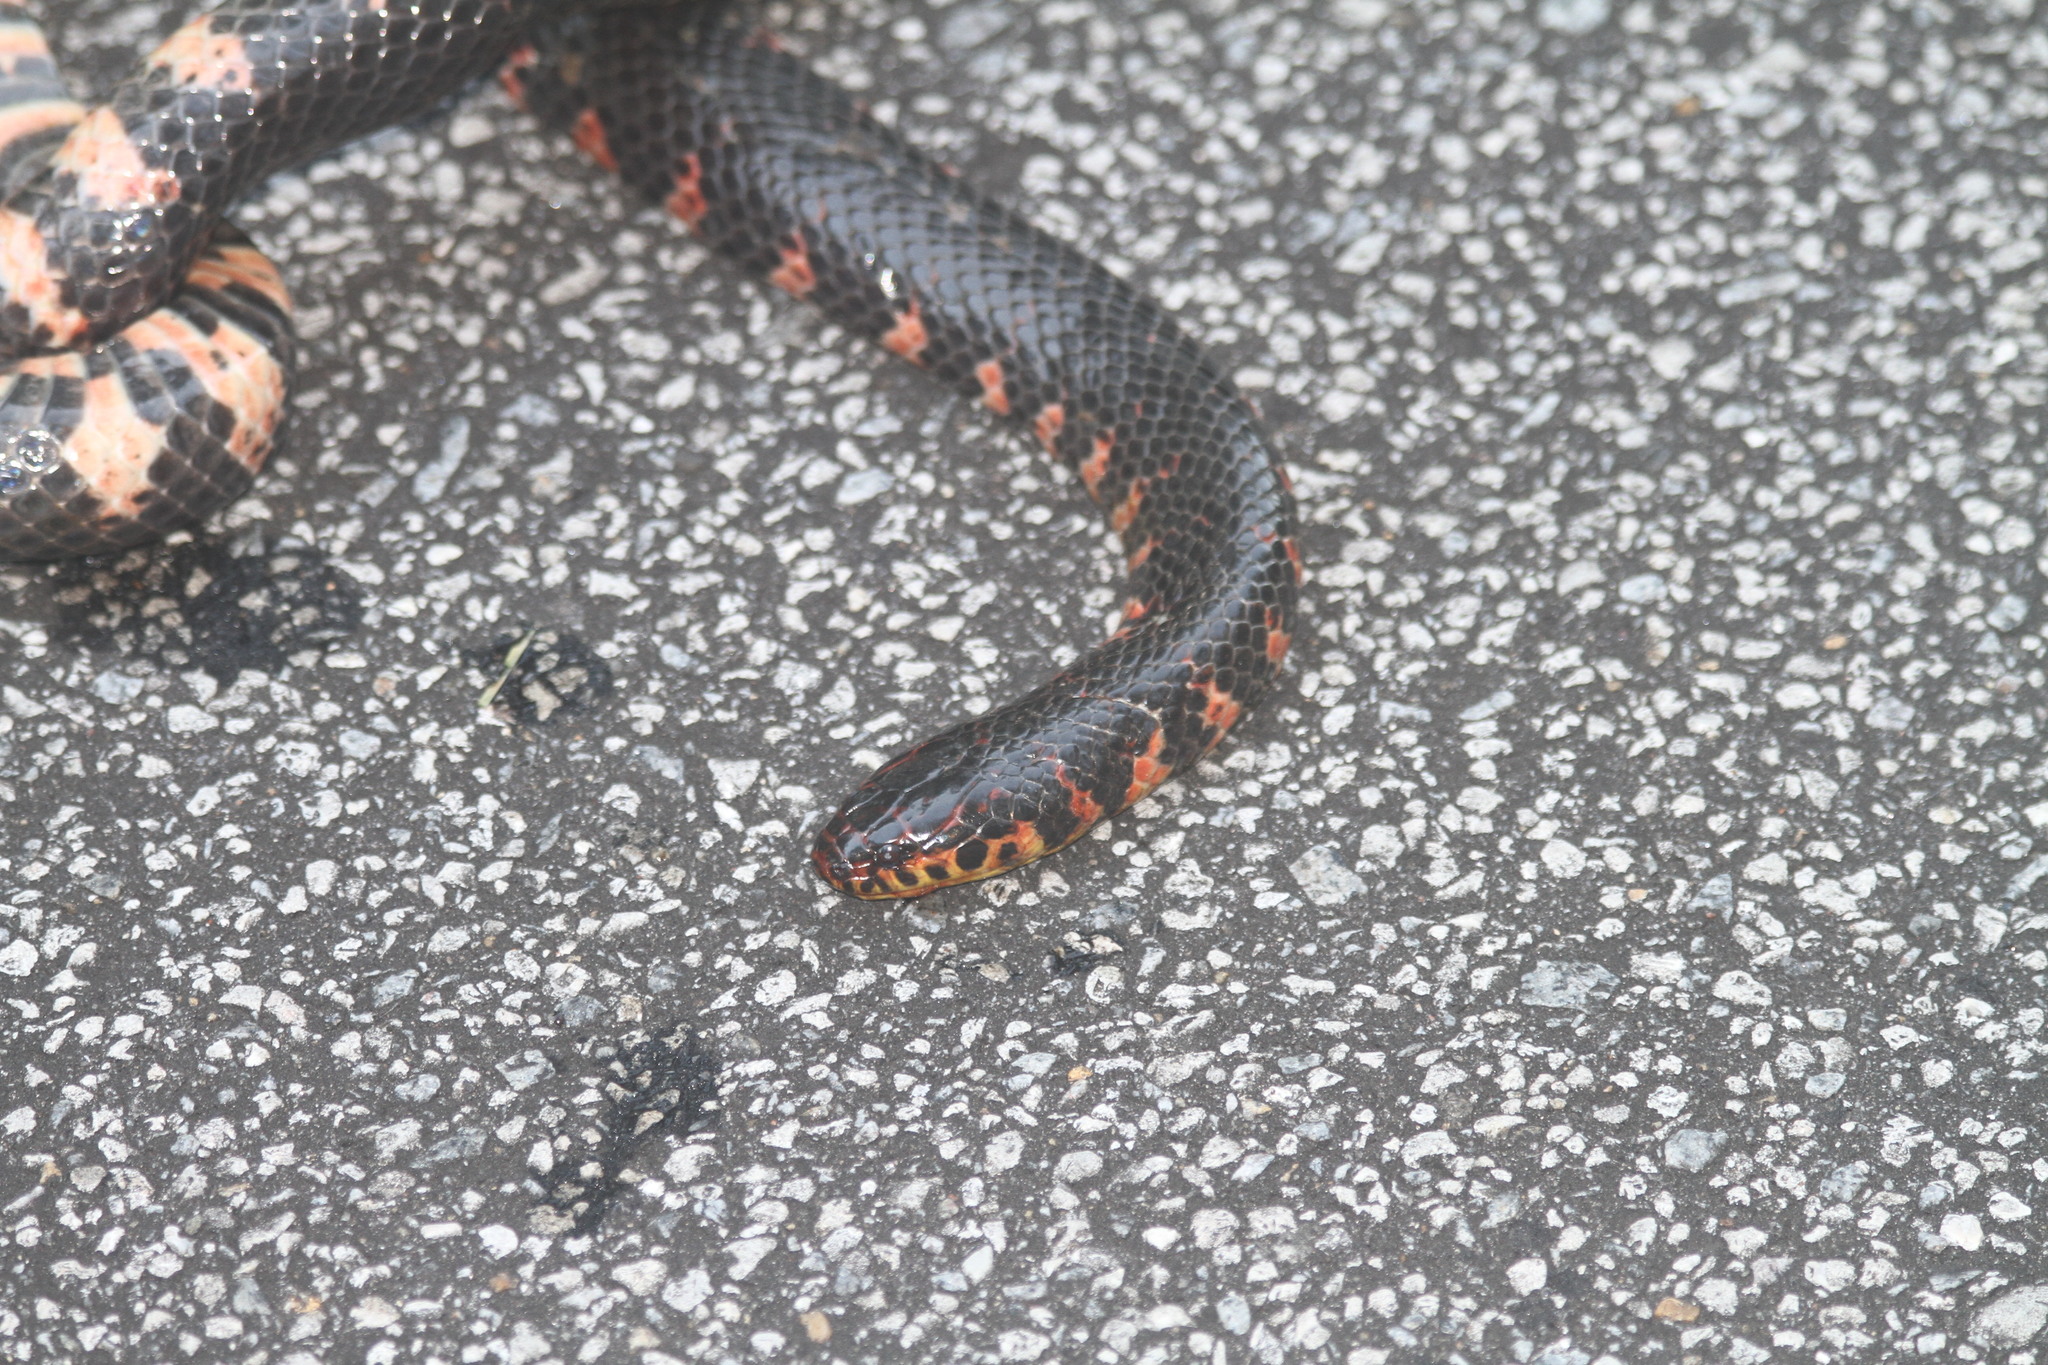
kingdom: Animalia
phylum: Chordata
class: Squamata
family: Colubridae
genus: Farancia
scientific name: Farancia abacura
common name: Mud snake
